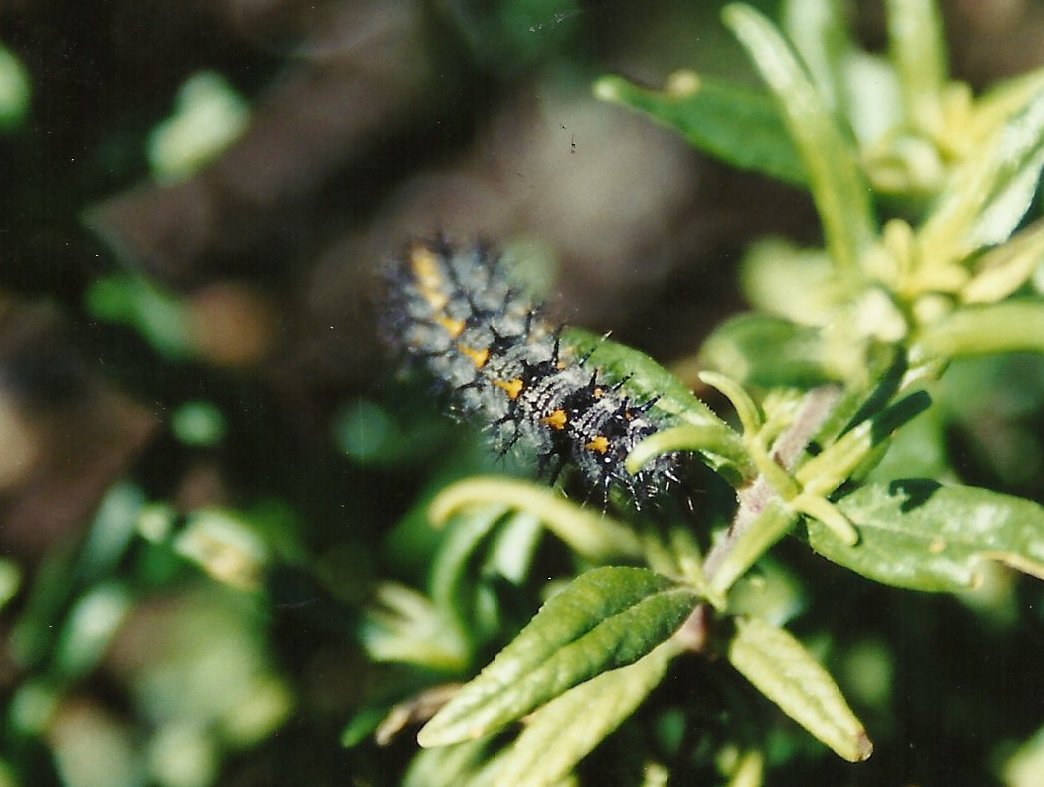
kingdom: Animalia
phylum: Arthropoda
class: Insecta
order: Lepidoptera
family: Nymphalidae
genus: Occidryas
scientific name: Occidryas chalcedona
